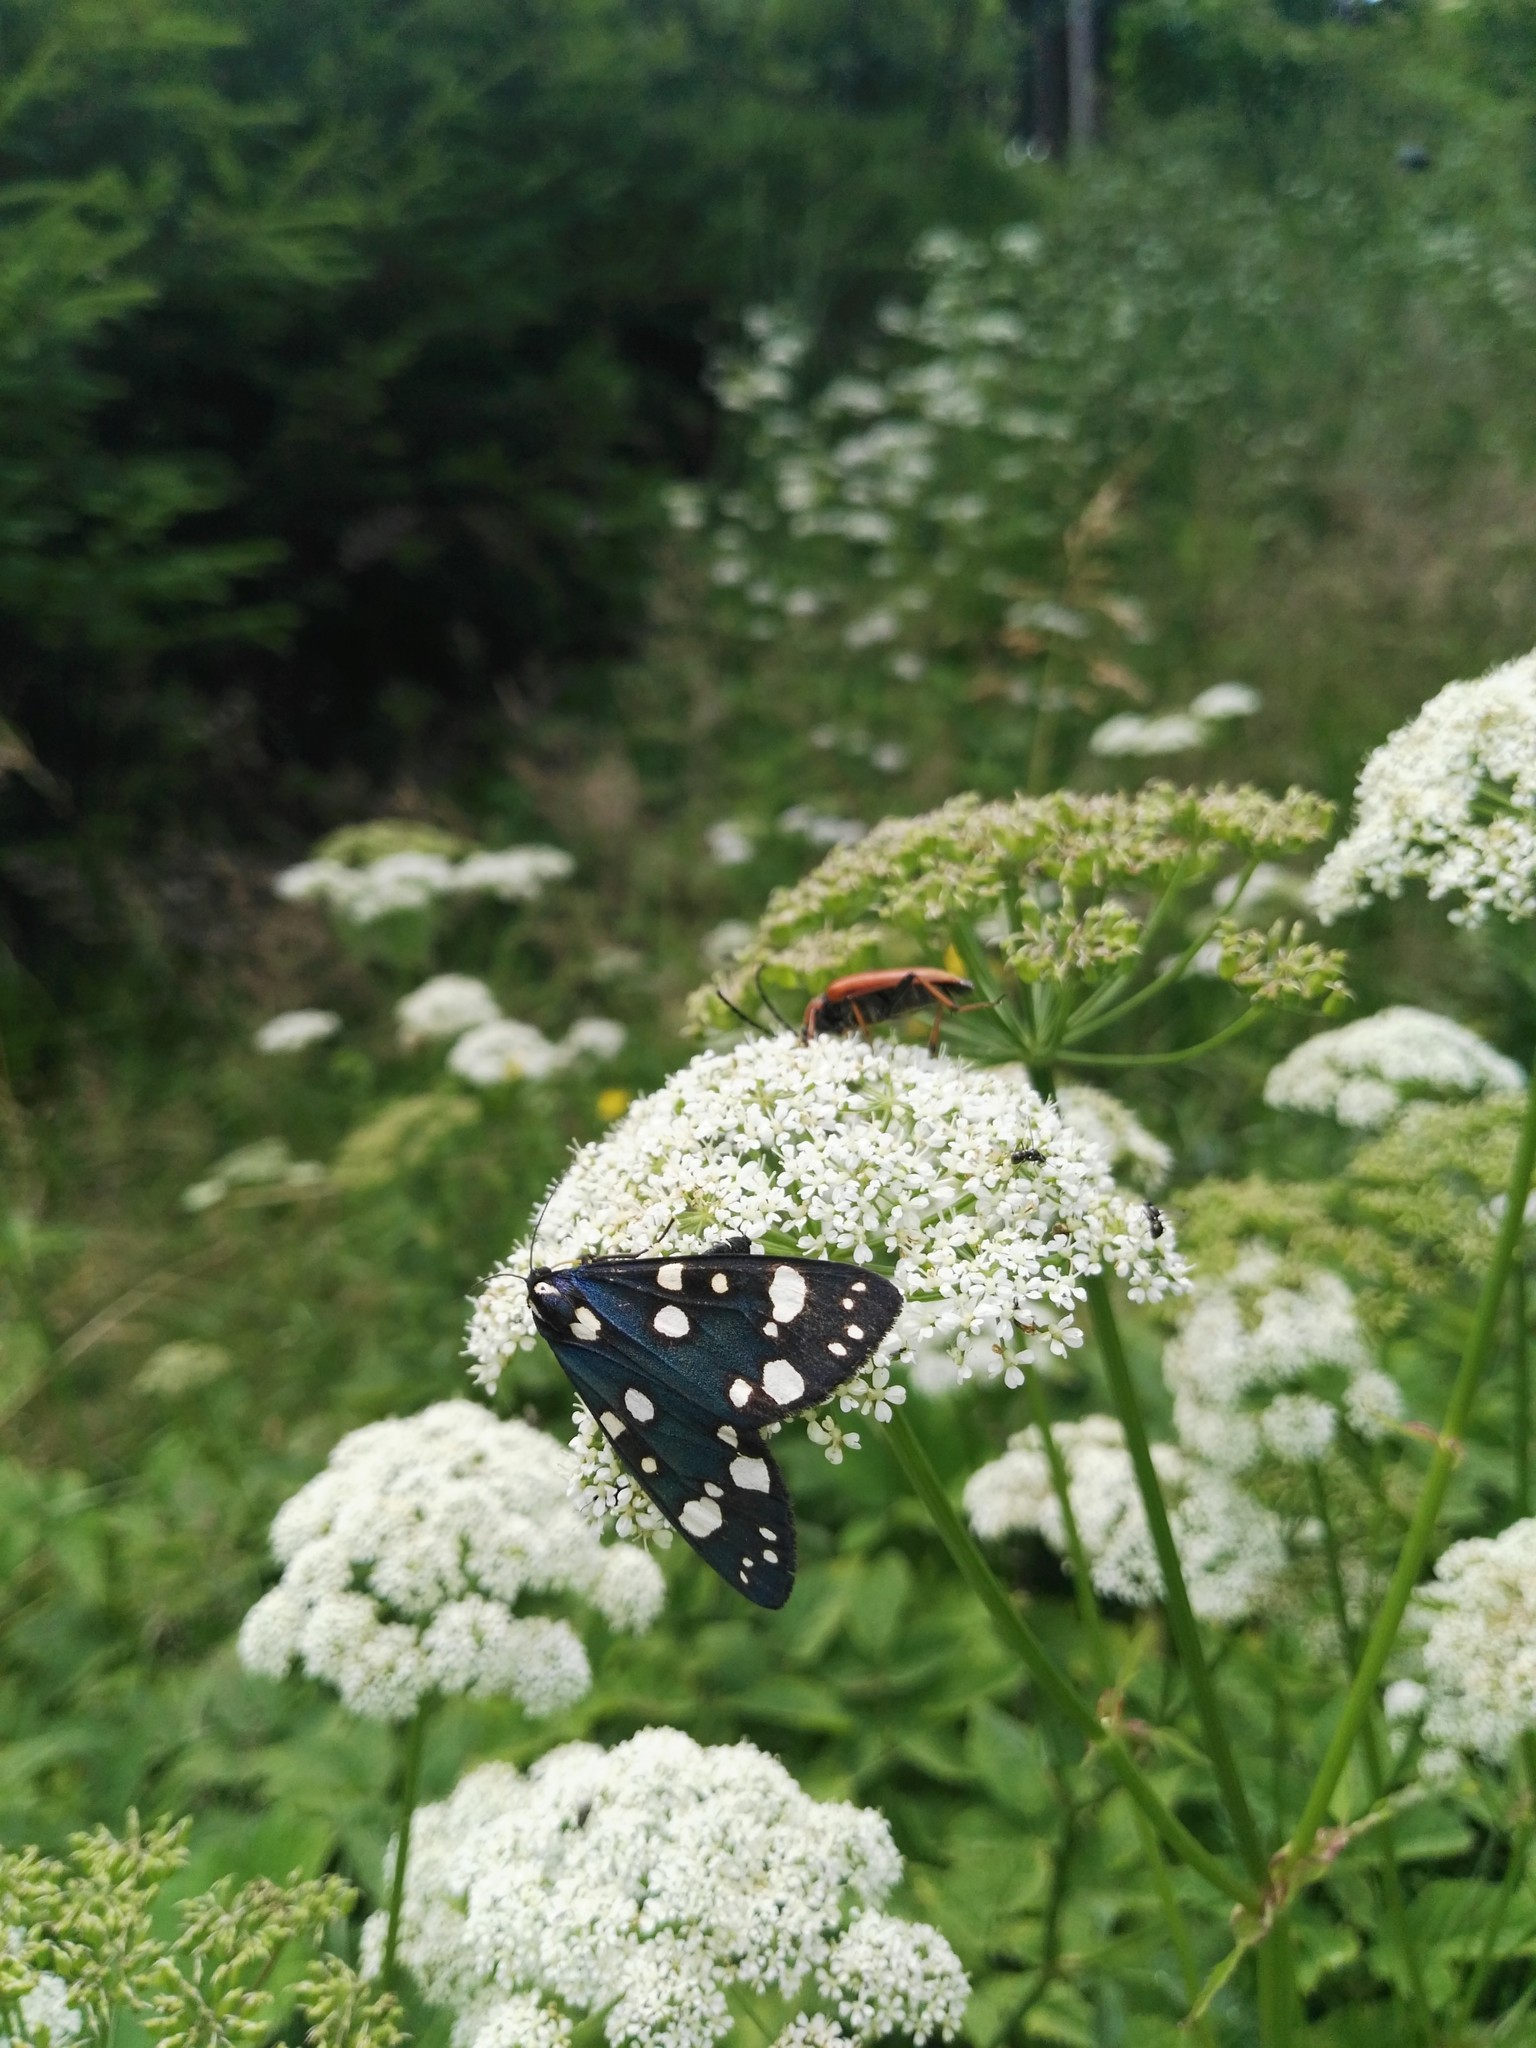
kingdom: Animalia
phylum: Arthropoda
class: Insecta
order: Lepidoptera
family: Erebidae
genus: Callimorpha
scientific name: Callimorpha dominula
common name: Scarlet tiger
